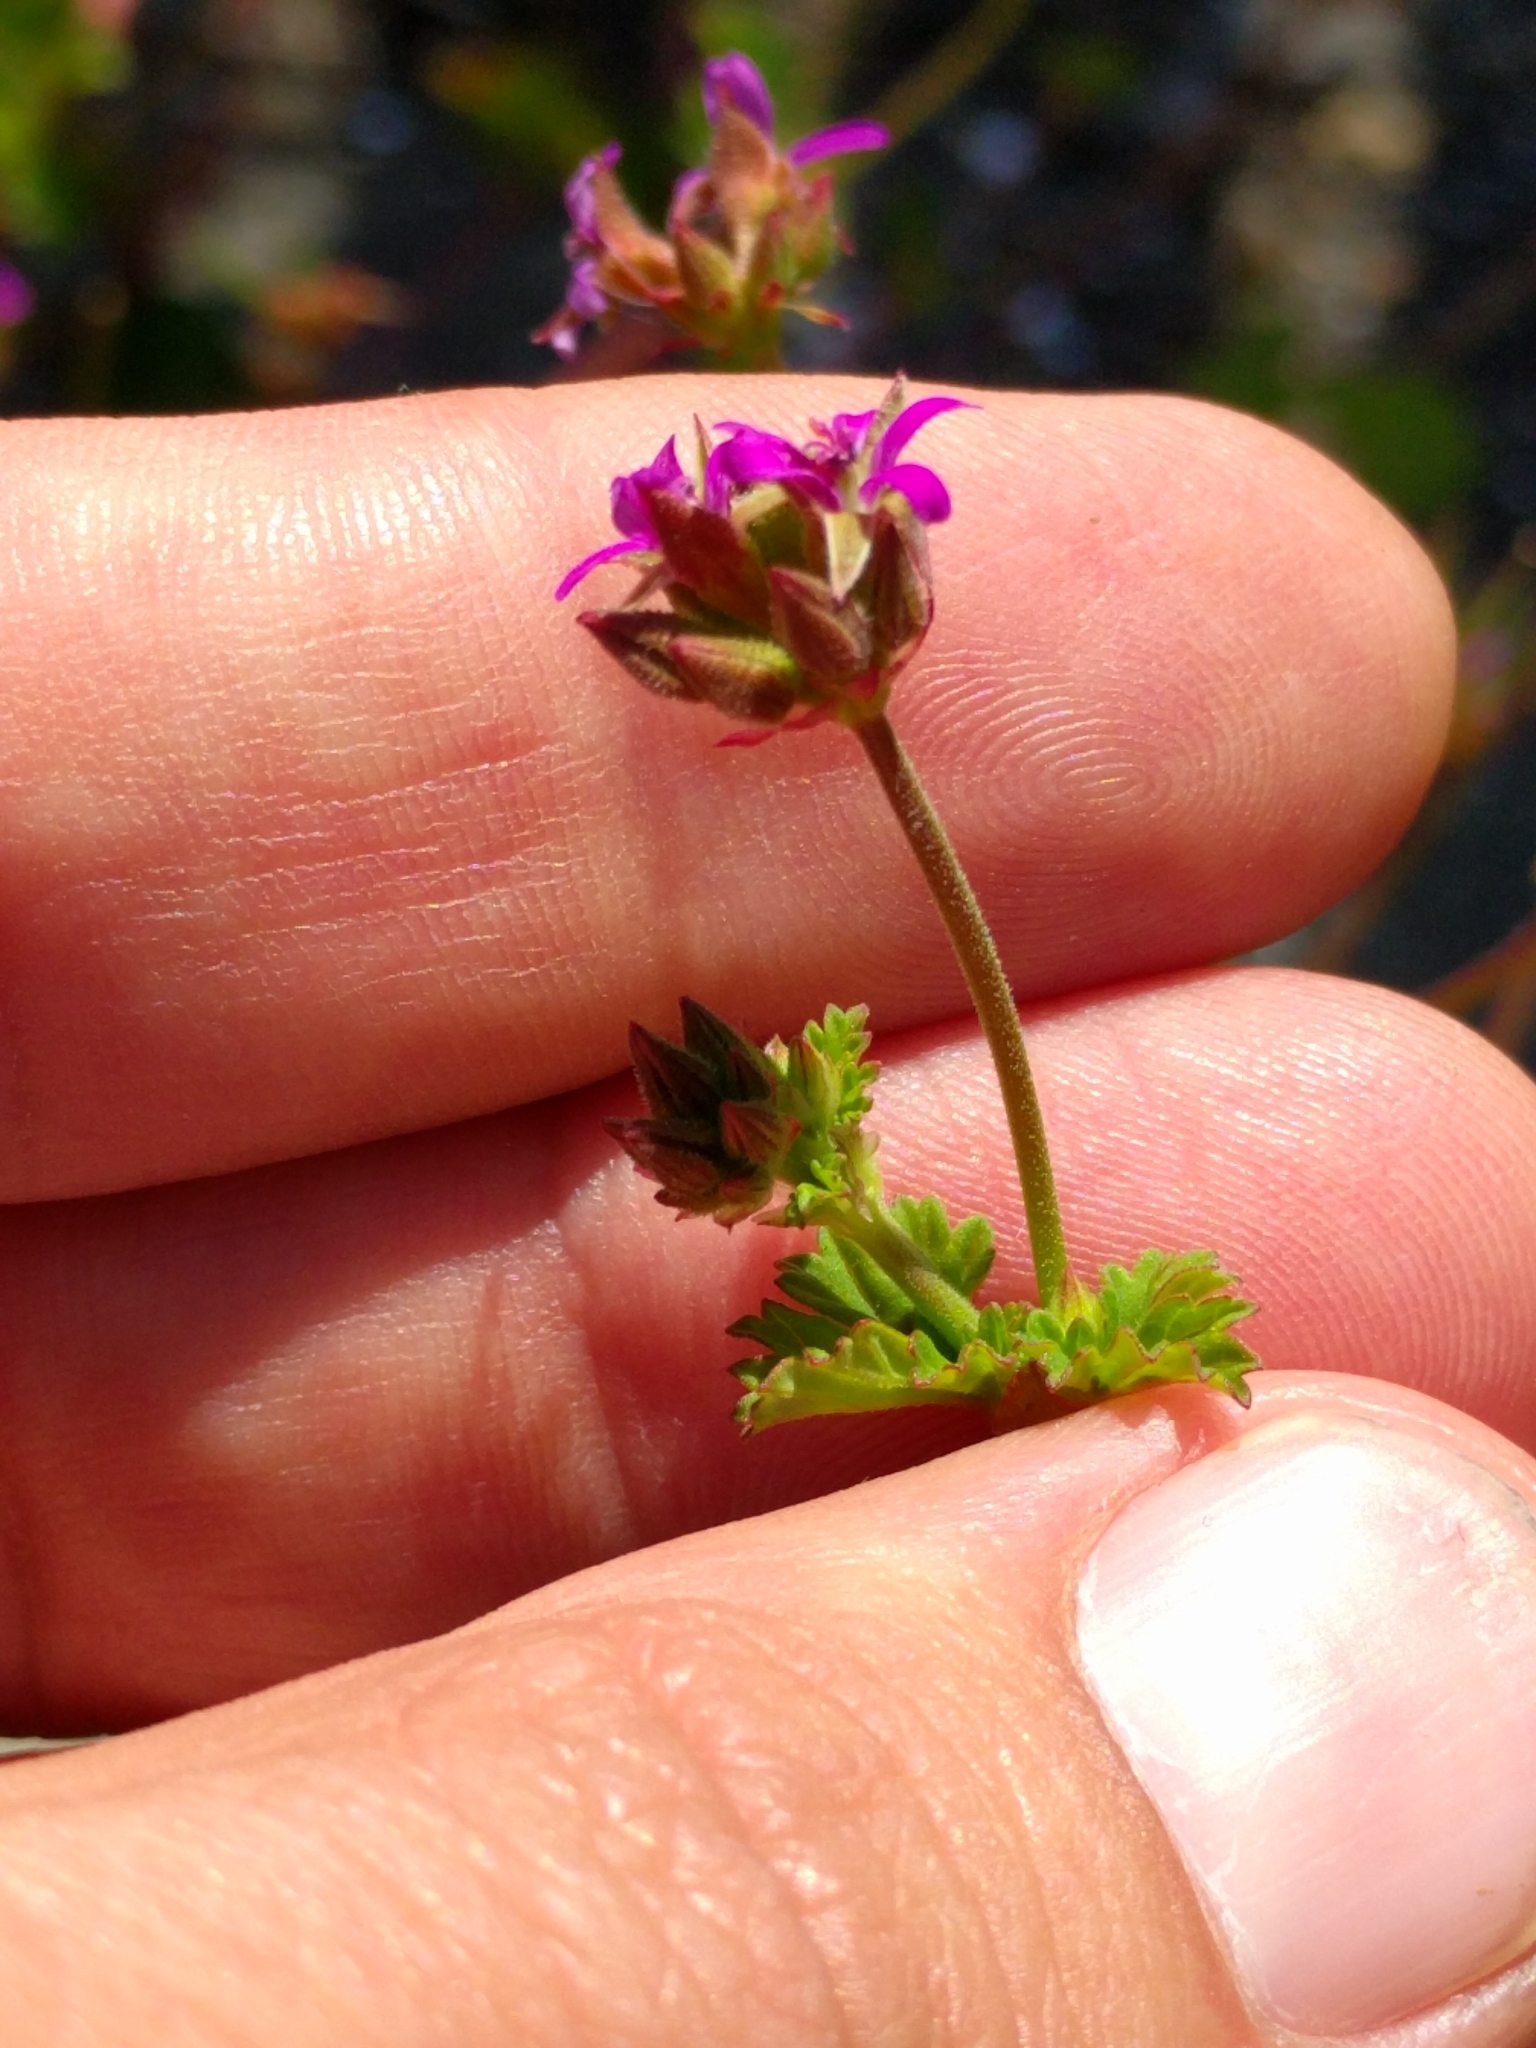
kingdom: Plantae
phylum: Tracheophyta
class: Magnoliopsida
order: Geraniales
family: Geraniaceae
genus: Pelargonium
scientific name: Pelargonium grossularioides
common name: Gooseberry geranium
